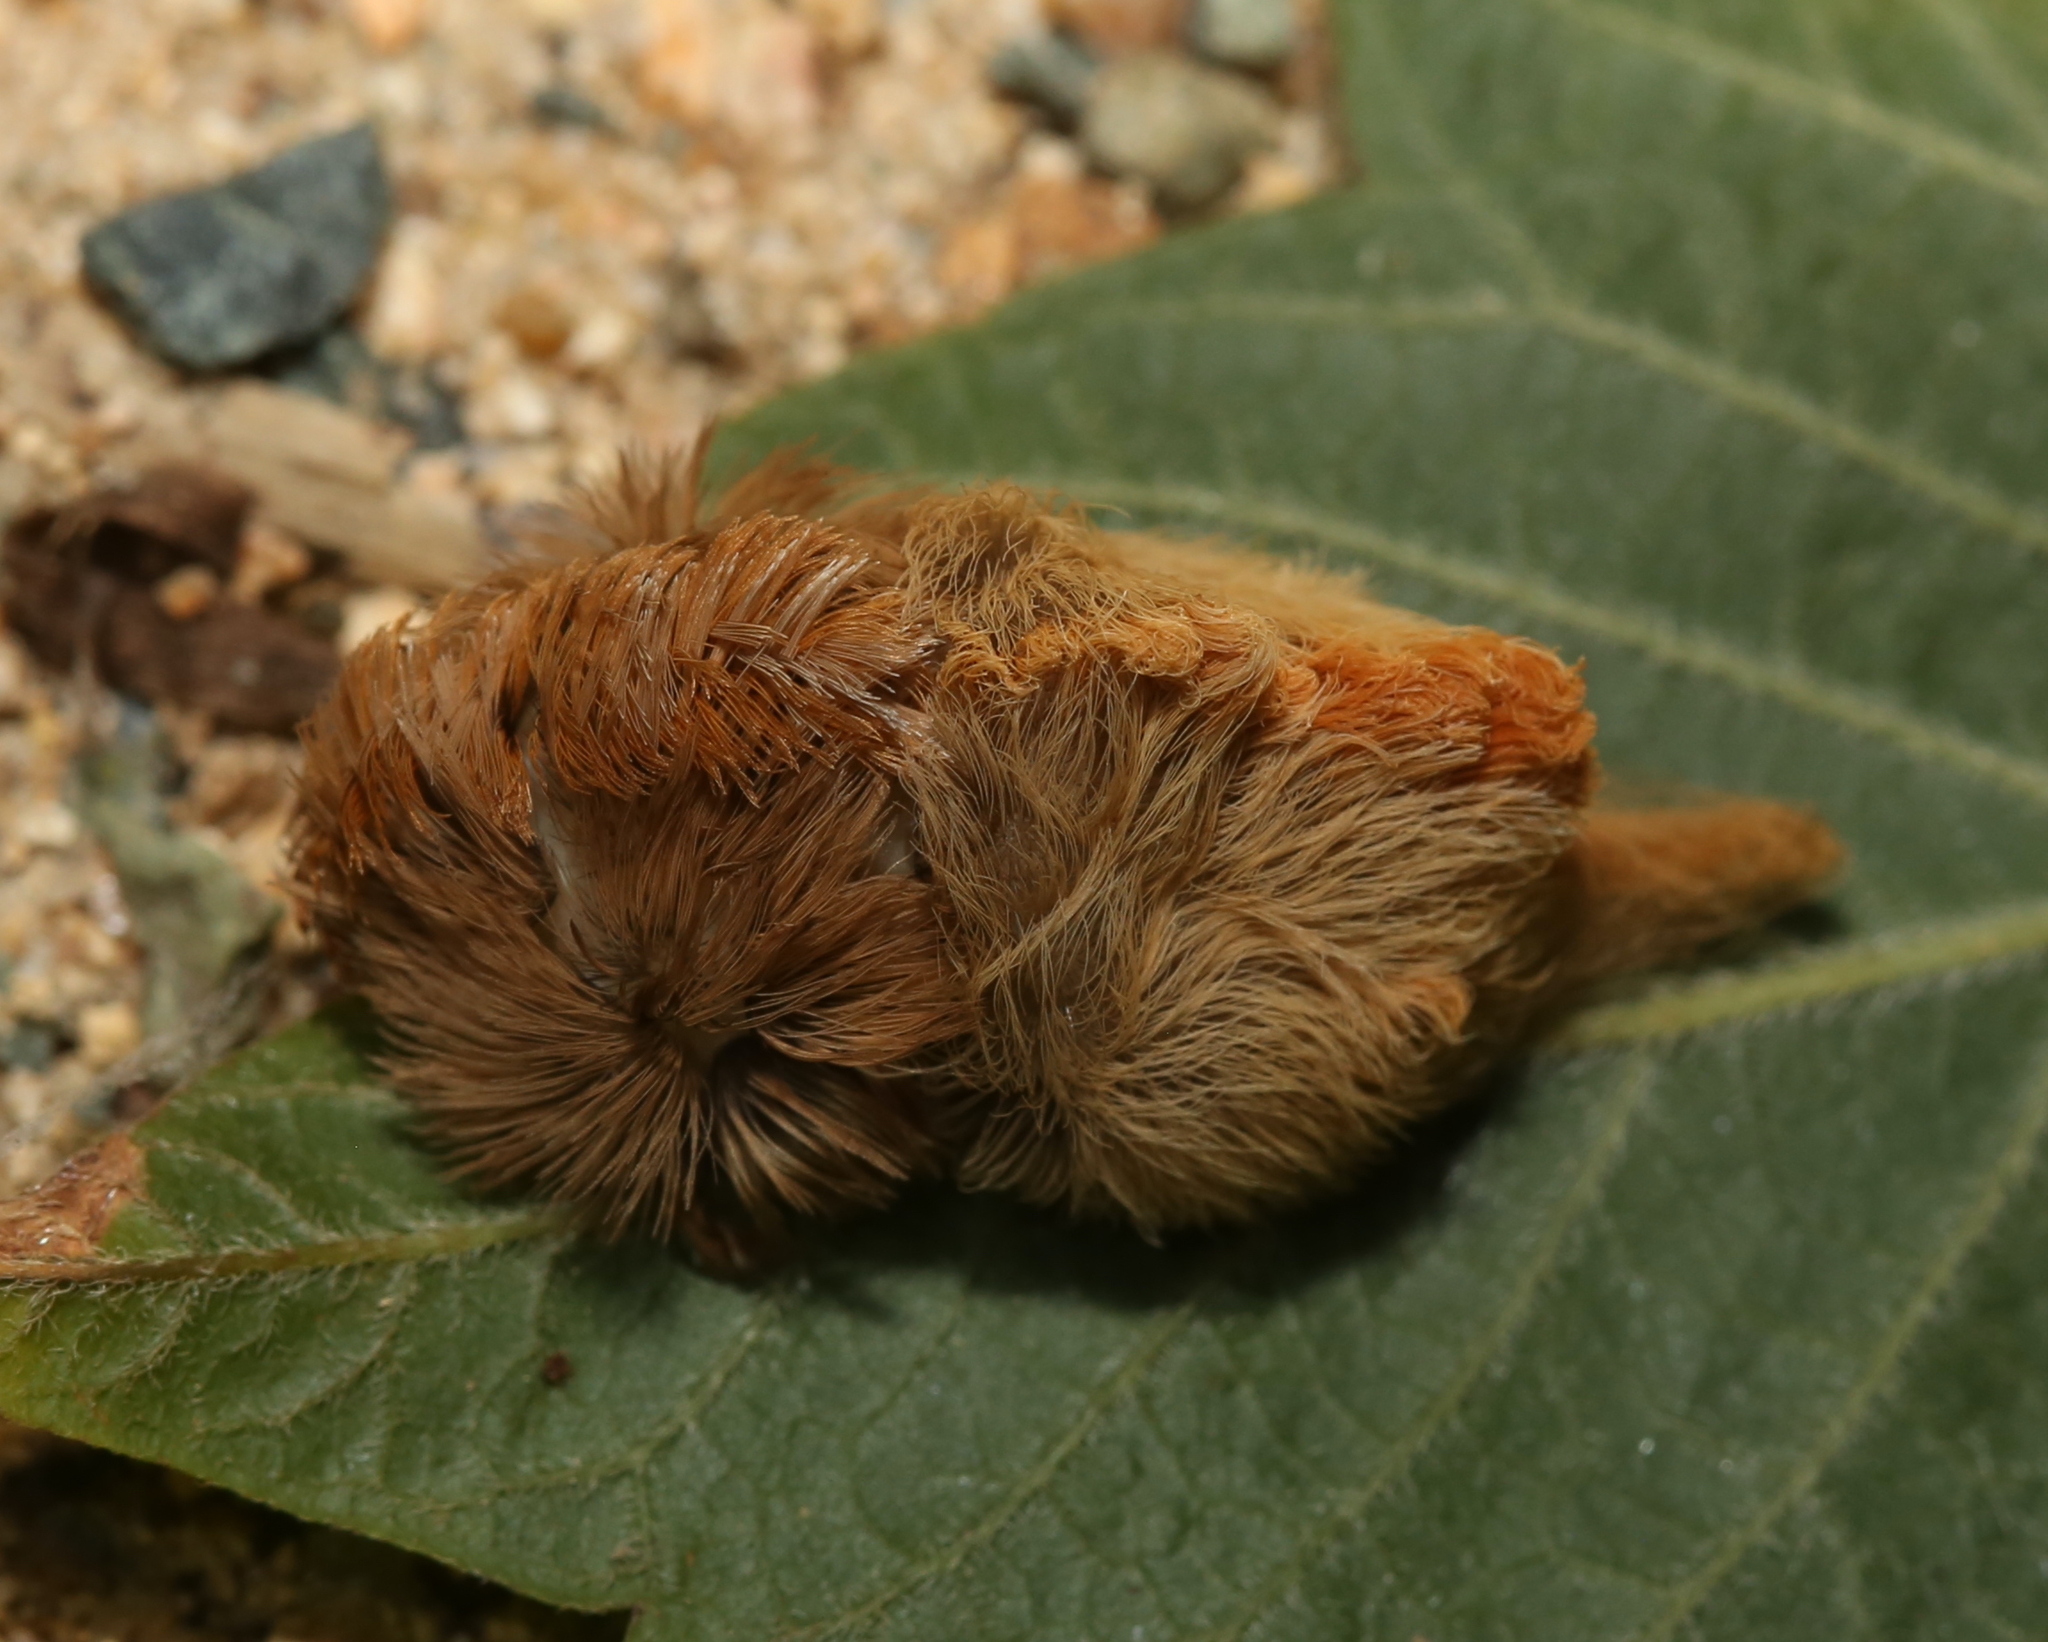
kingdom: Animalia
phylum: Arthropoda
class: Insecta
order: Lepidoptera
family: Megalopygidae
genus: Megalopyge
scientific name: Megalopyge opercularis
